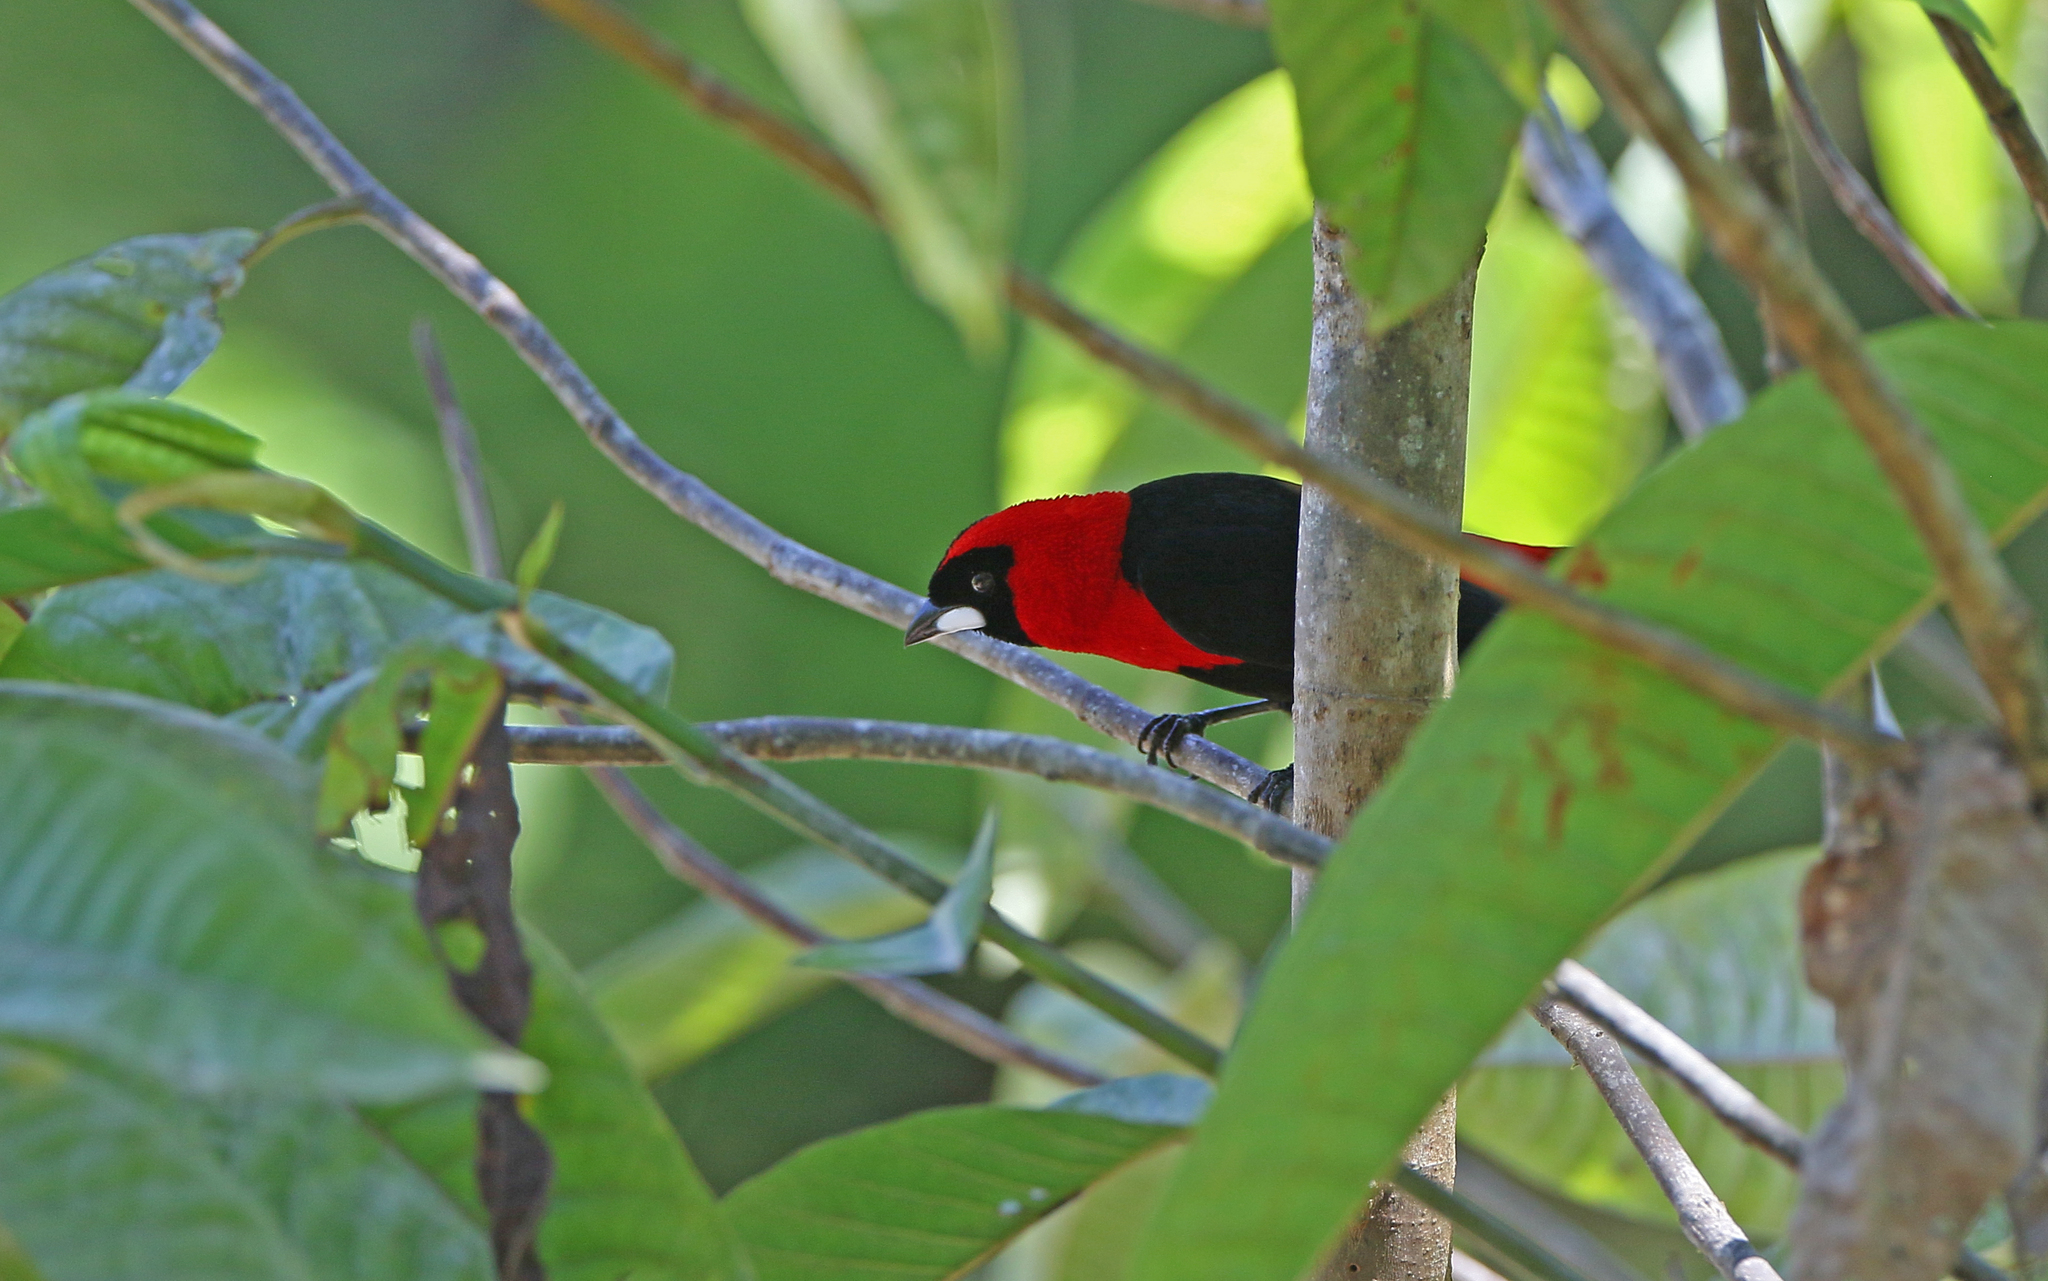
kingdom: Animalia
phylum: Chordata
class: Aves
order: Passeriformes
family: Thraupidae
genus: Ramphocelus
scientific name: Ramphocelus nigrogularis
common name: Masked crimson tanager
